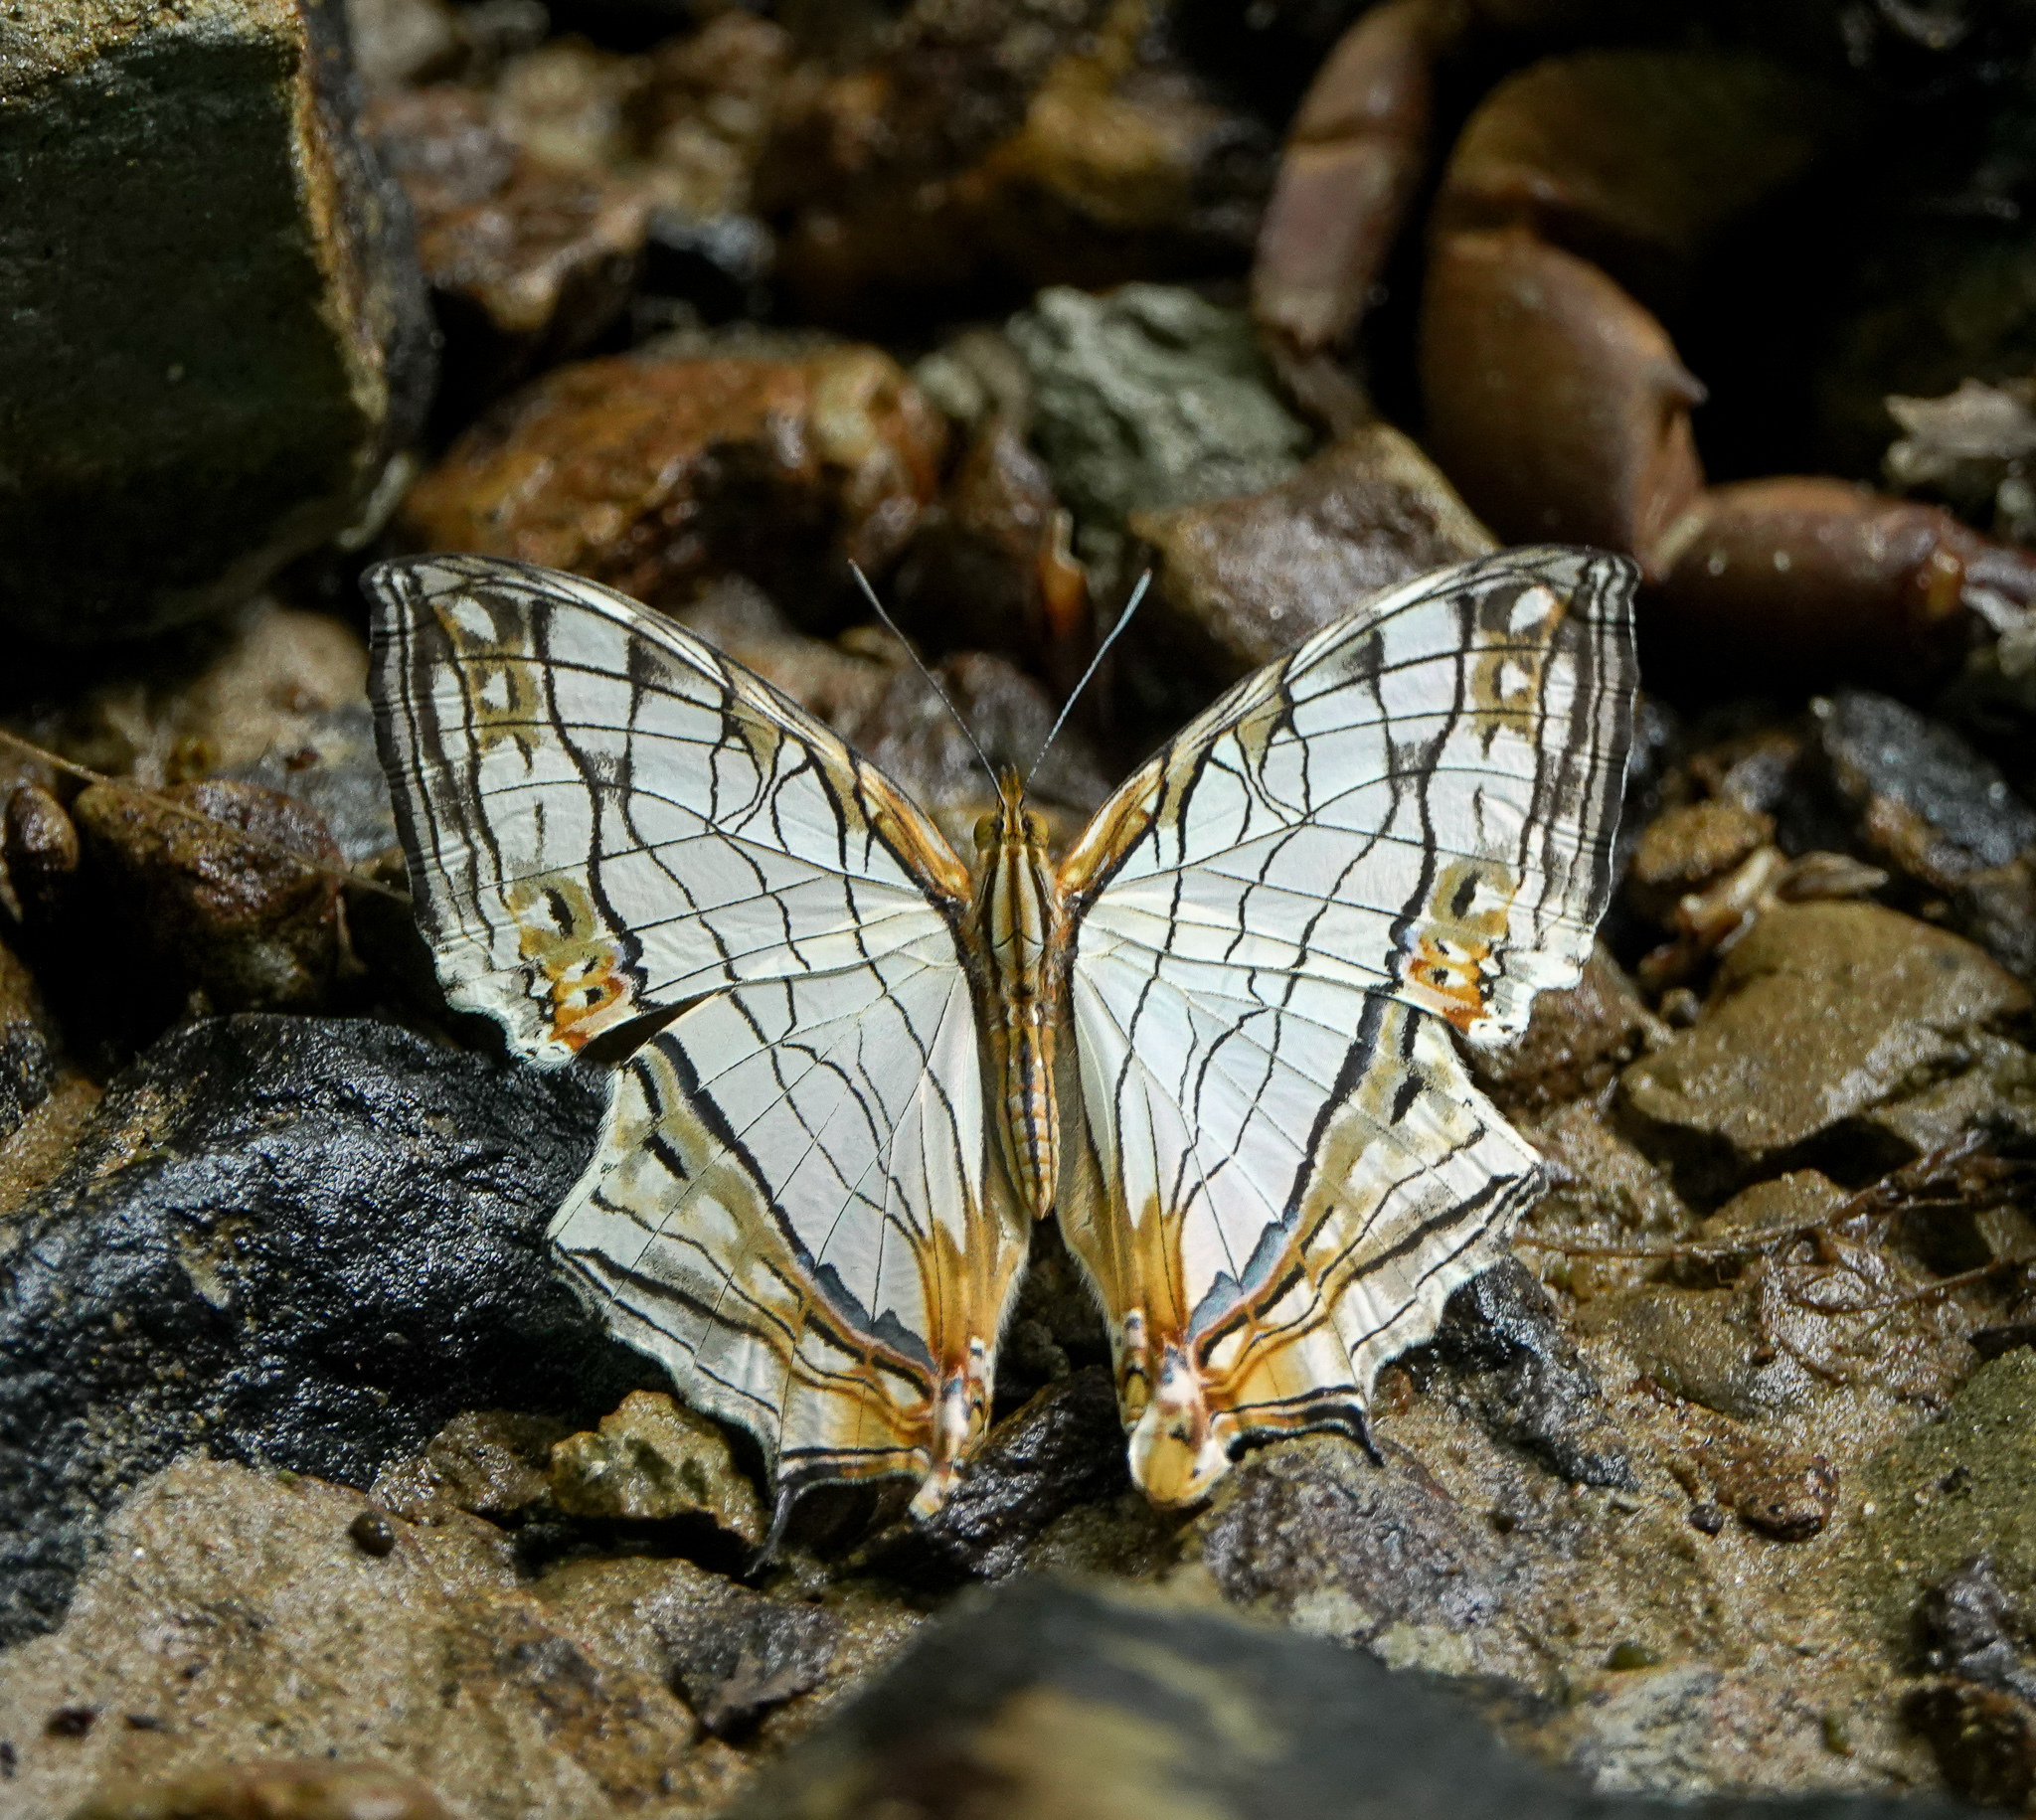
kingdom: Animalia
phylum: Arthropoda
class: Insecta
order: Lepidoptera
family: Nymphalidae
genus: Cyrestis
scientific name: Cyrestis thyodamas
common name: Common mapwing
